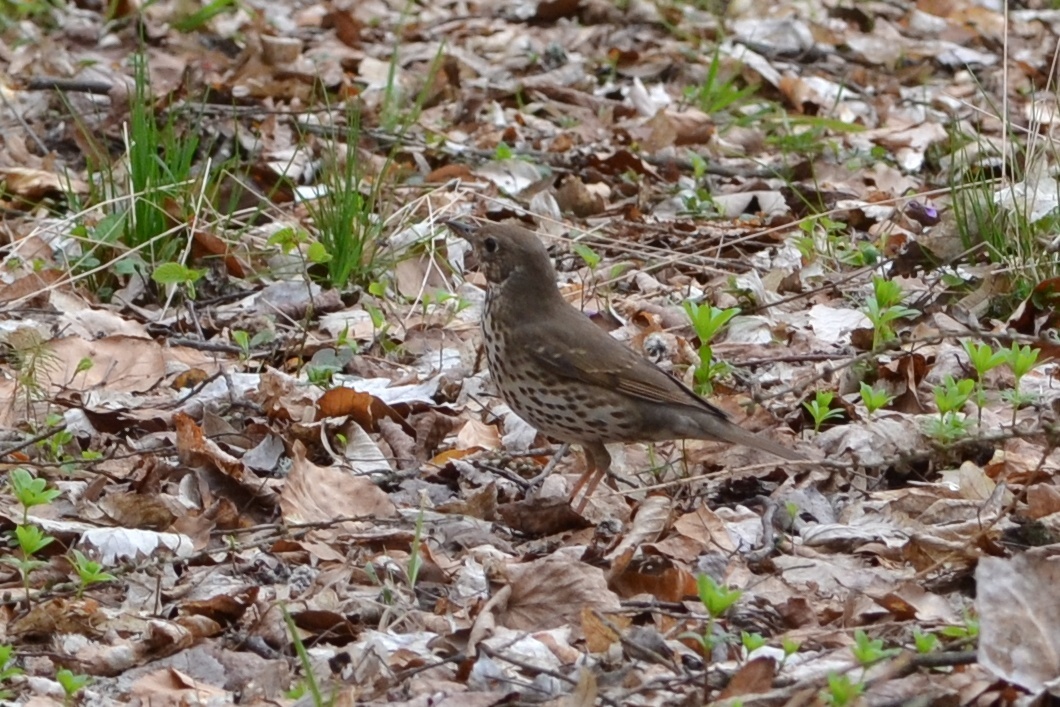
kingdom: Animalia
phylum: Chordata
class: Aves
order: Passeriformes
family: Turdidae
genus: Turdus
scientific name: Turdus philomelos
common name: Song thrush
